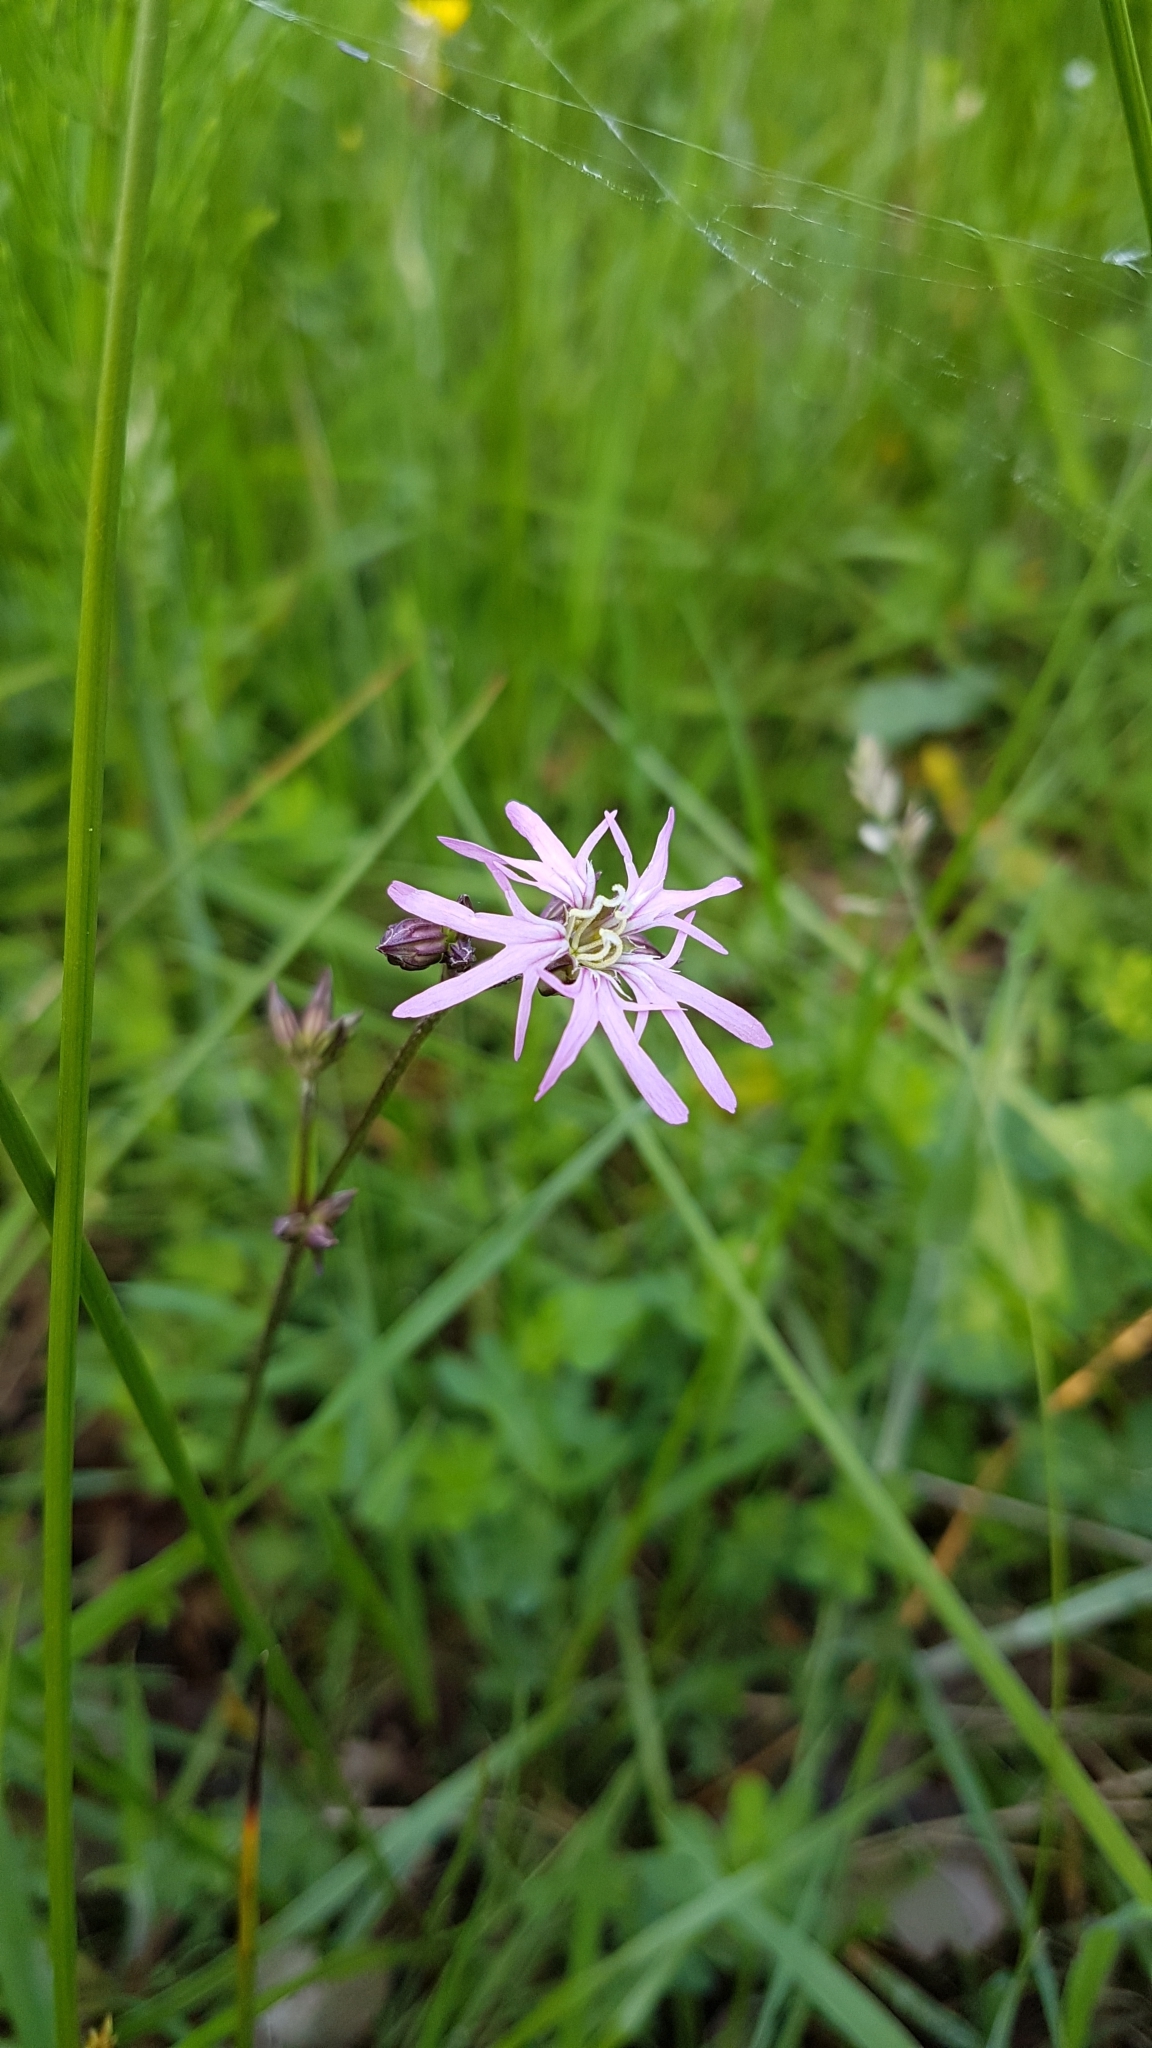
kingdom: Plantae
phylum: Tracheophyta
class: Magnoliopsida
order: Caryophyllales
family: Caryophyllaceae
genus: Silene
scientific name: Silene flos-cuculi
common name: Ragged-robin
